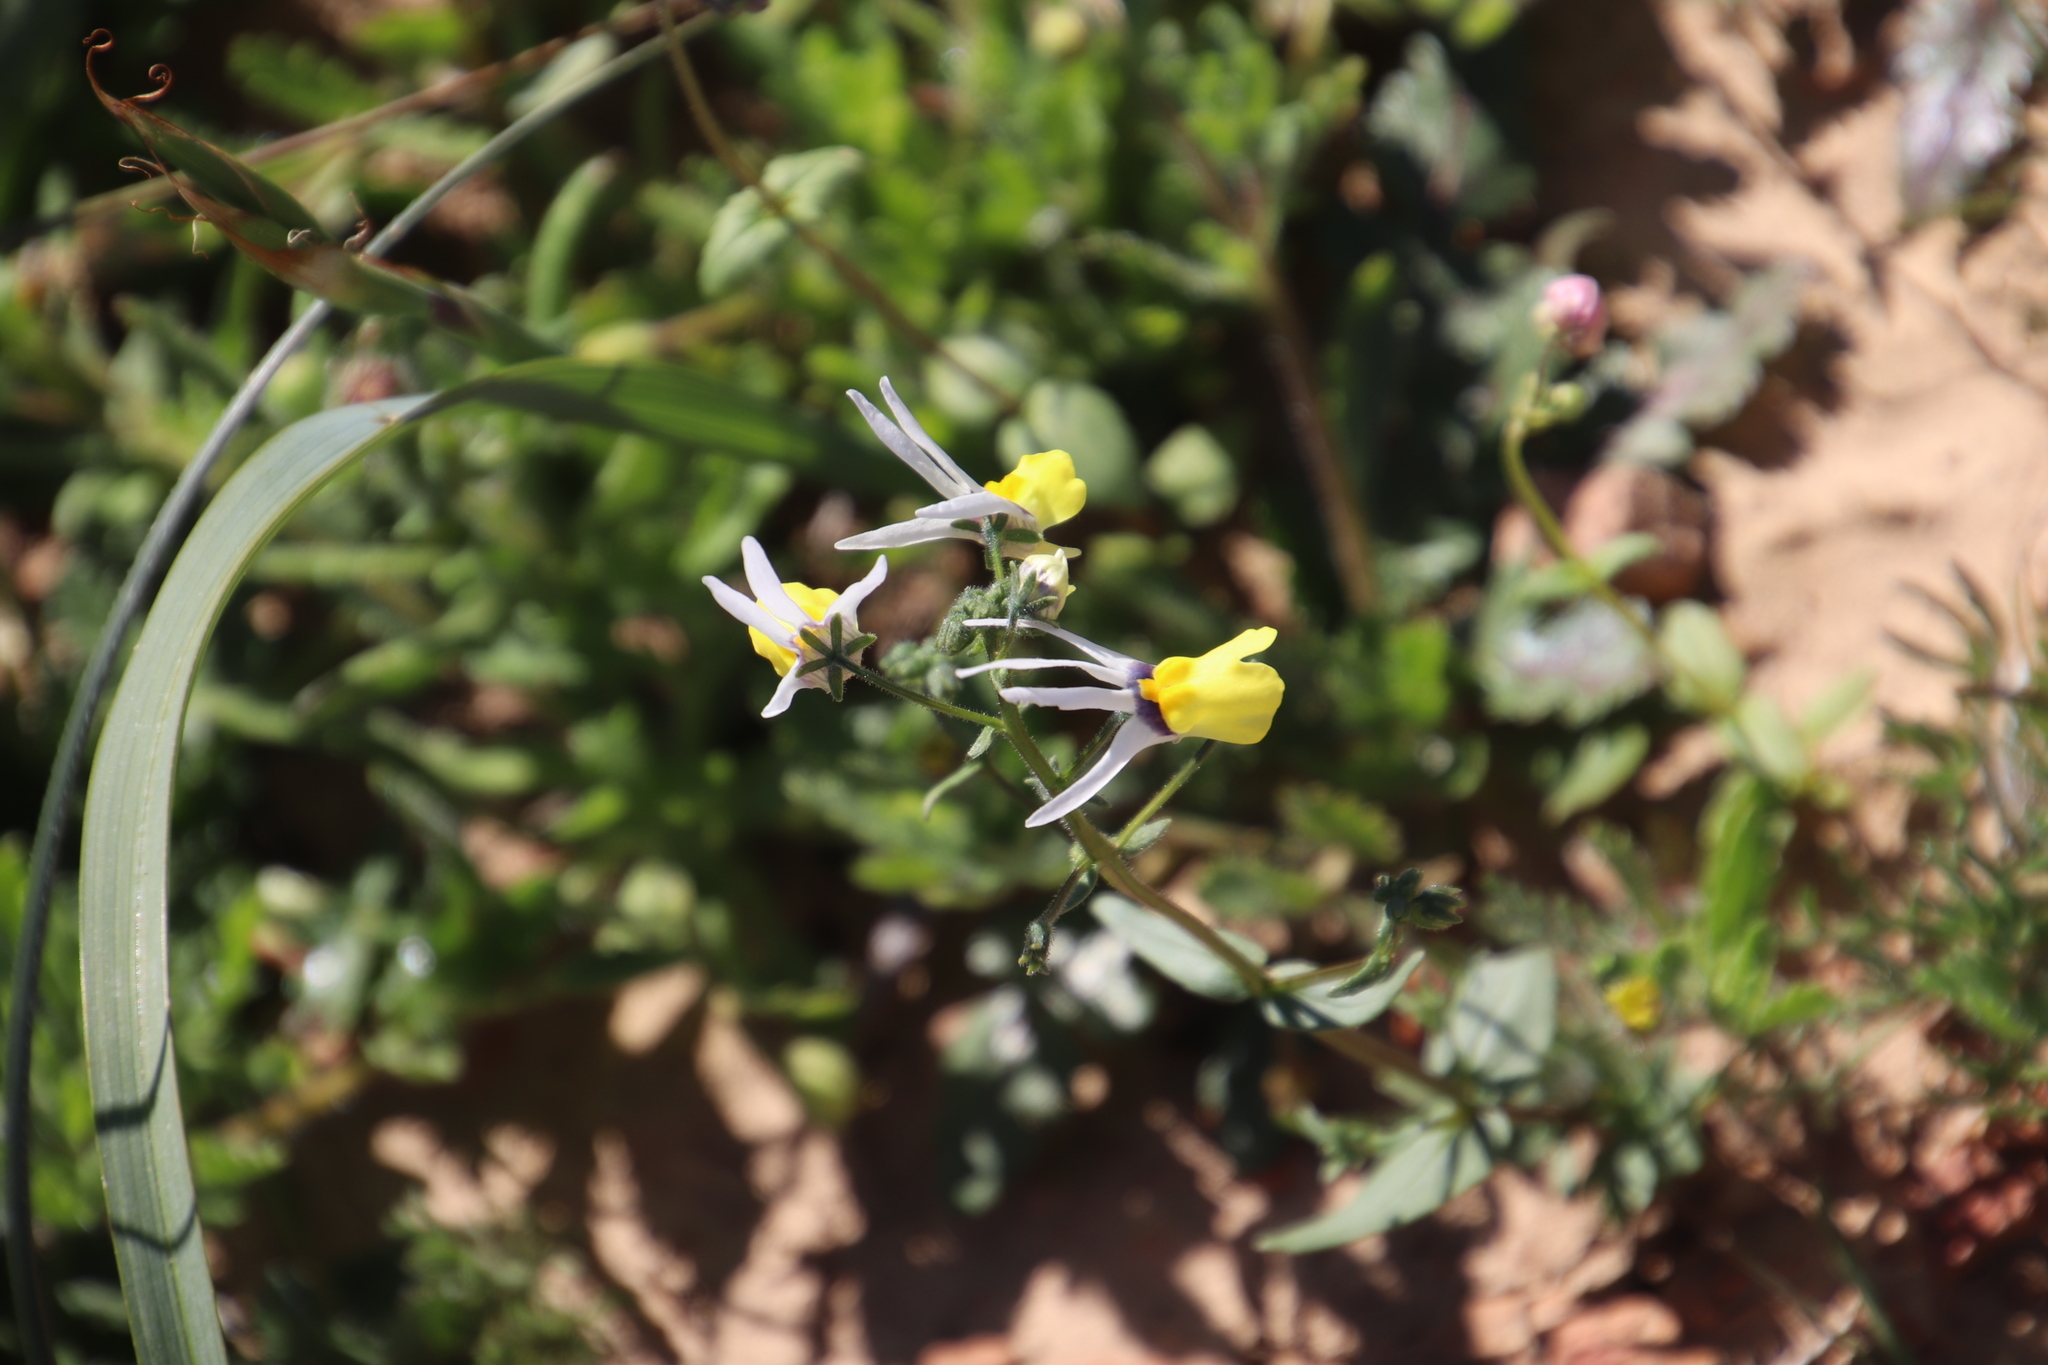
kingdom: Plantae
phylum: Tracheophyta
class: Magnoliopsida
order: Lamiales
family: Scrophulariaceae
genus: Nemesia
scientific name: Nemesia cheiranthus
